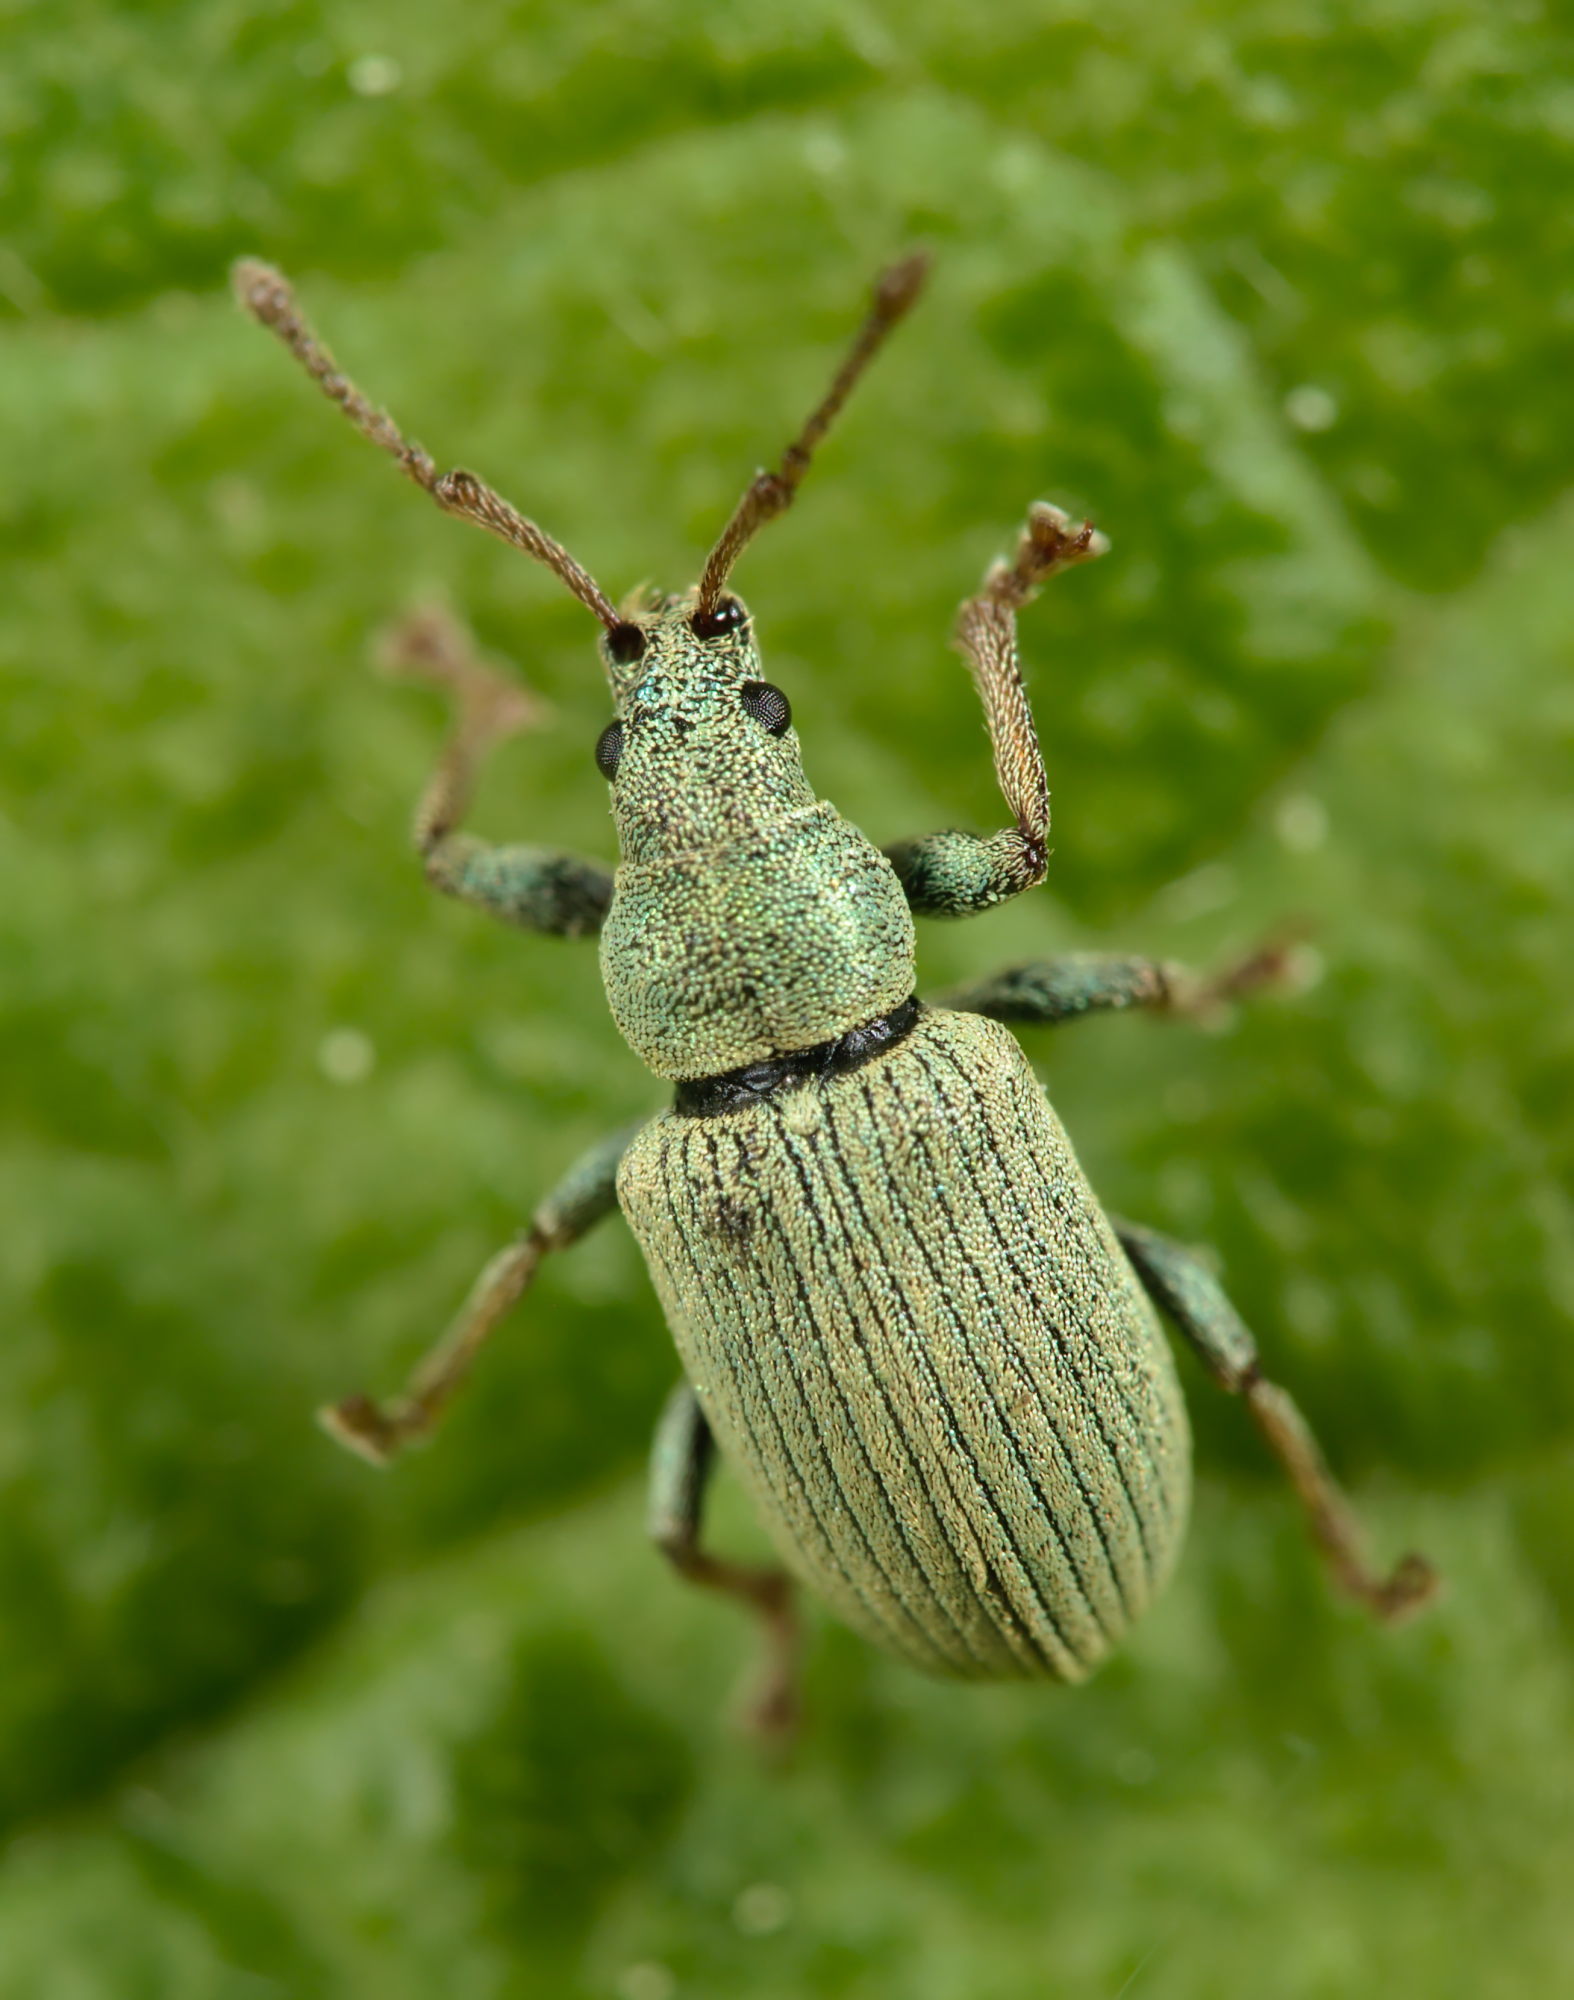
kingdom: Animalia
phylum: Arthropoda
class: Insecta
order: Coleoptera
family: Curculionidae
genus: Phyllobius
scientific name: Phyllobius roboretanus
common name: Small green nettle weevil
